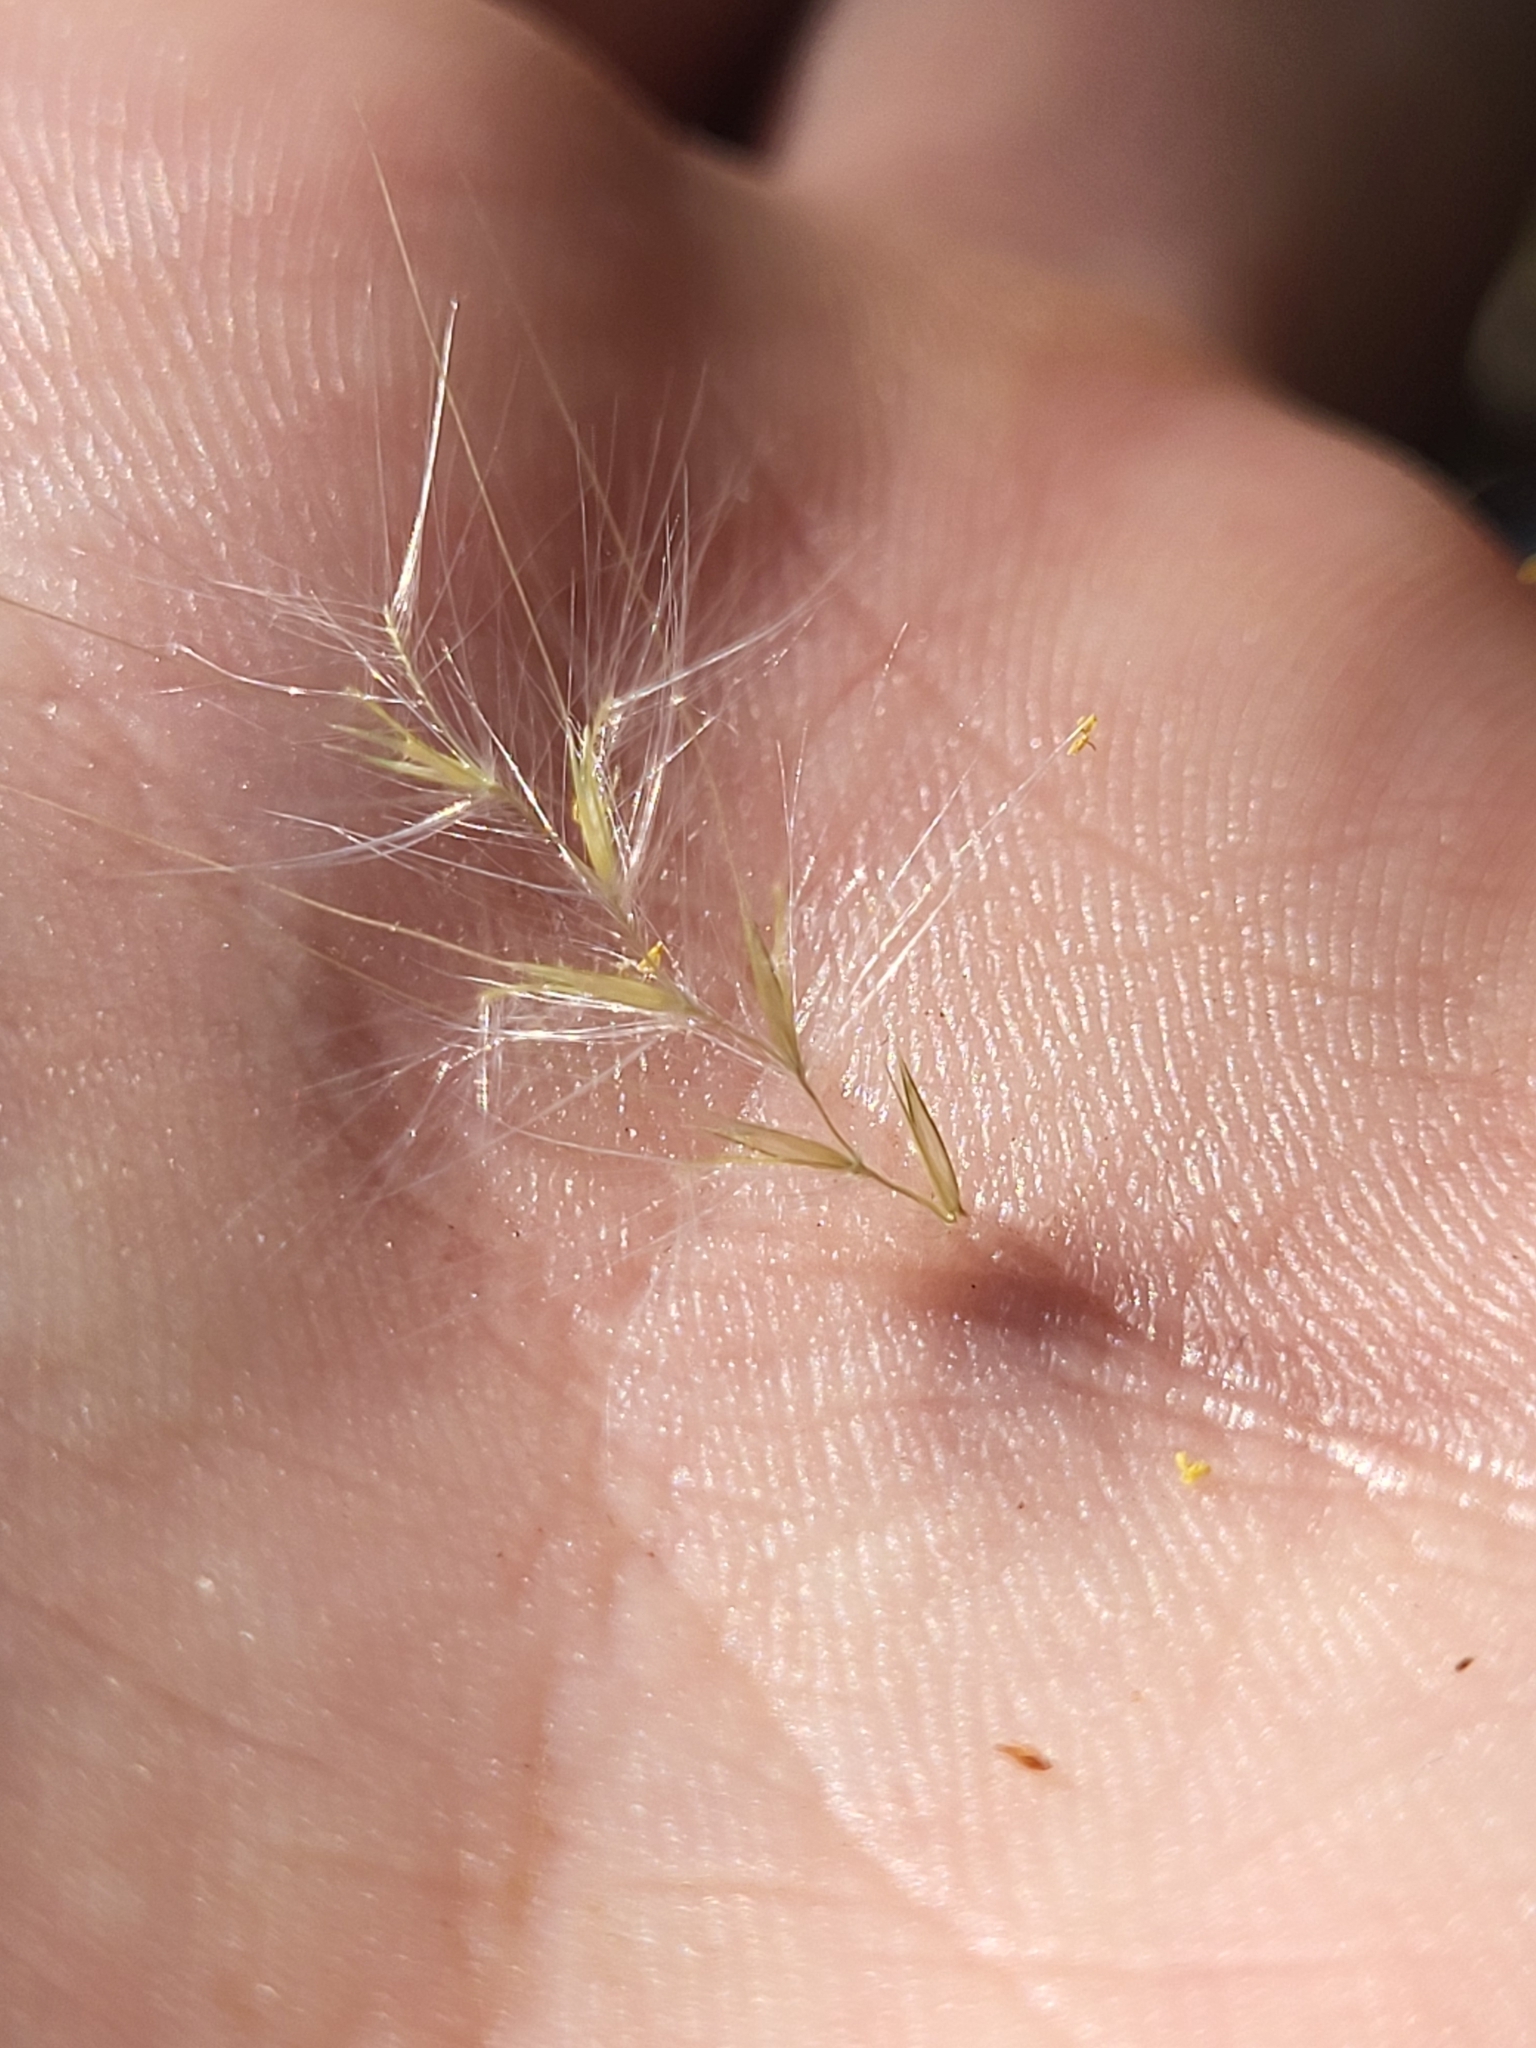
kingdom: Plantae
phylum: Tracheophyta
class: Liliopsida
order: Poales
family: Poaceae
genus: Andropogon
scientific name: Andropogon virginicus
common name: Broomsedge bluestem
